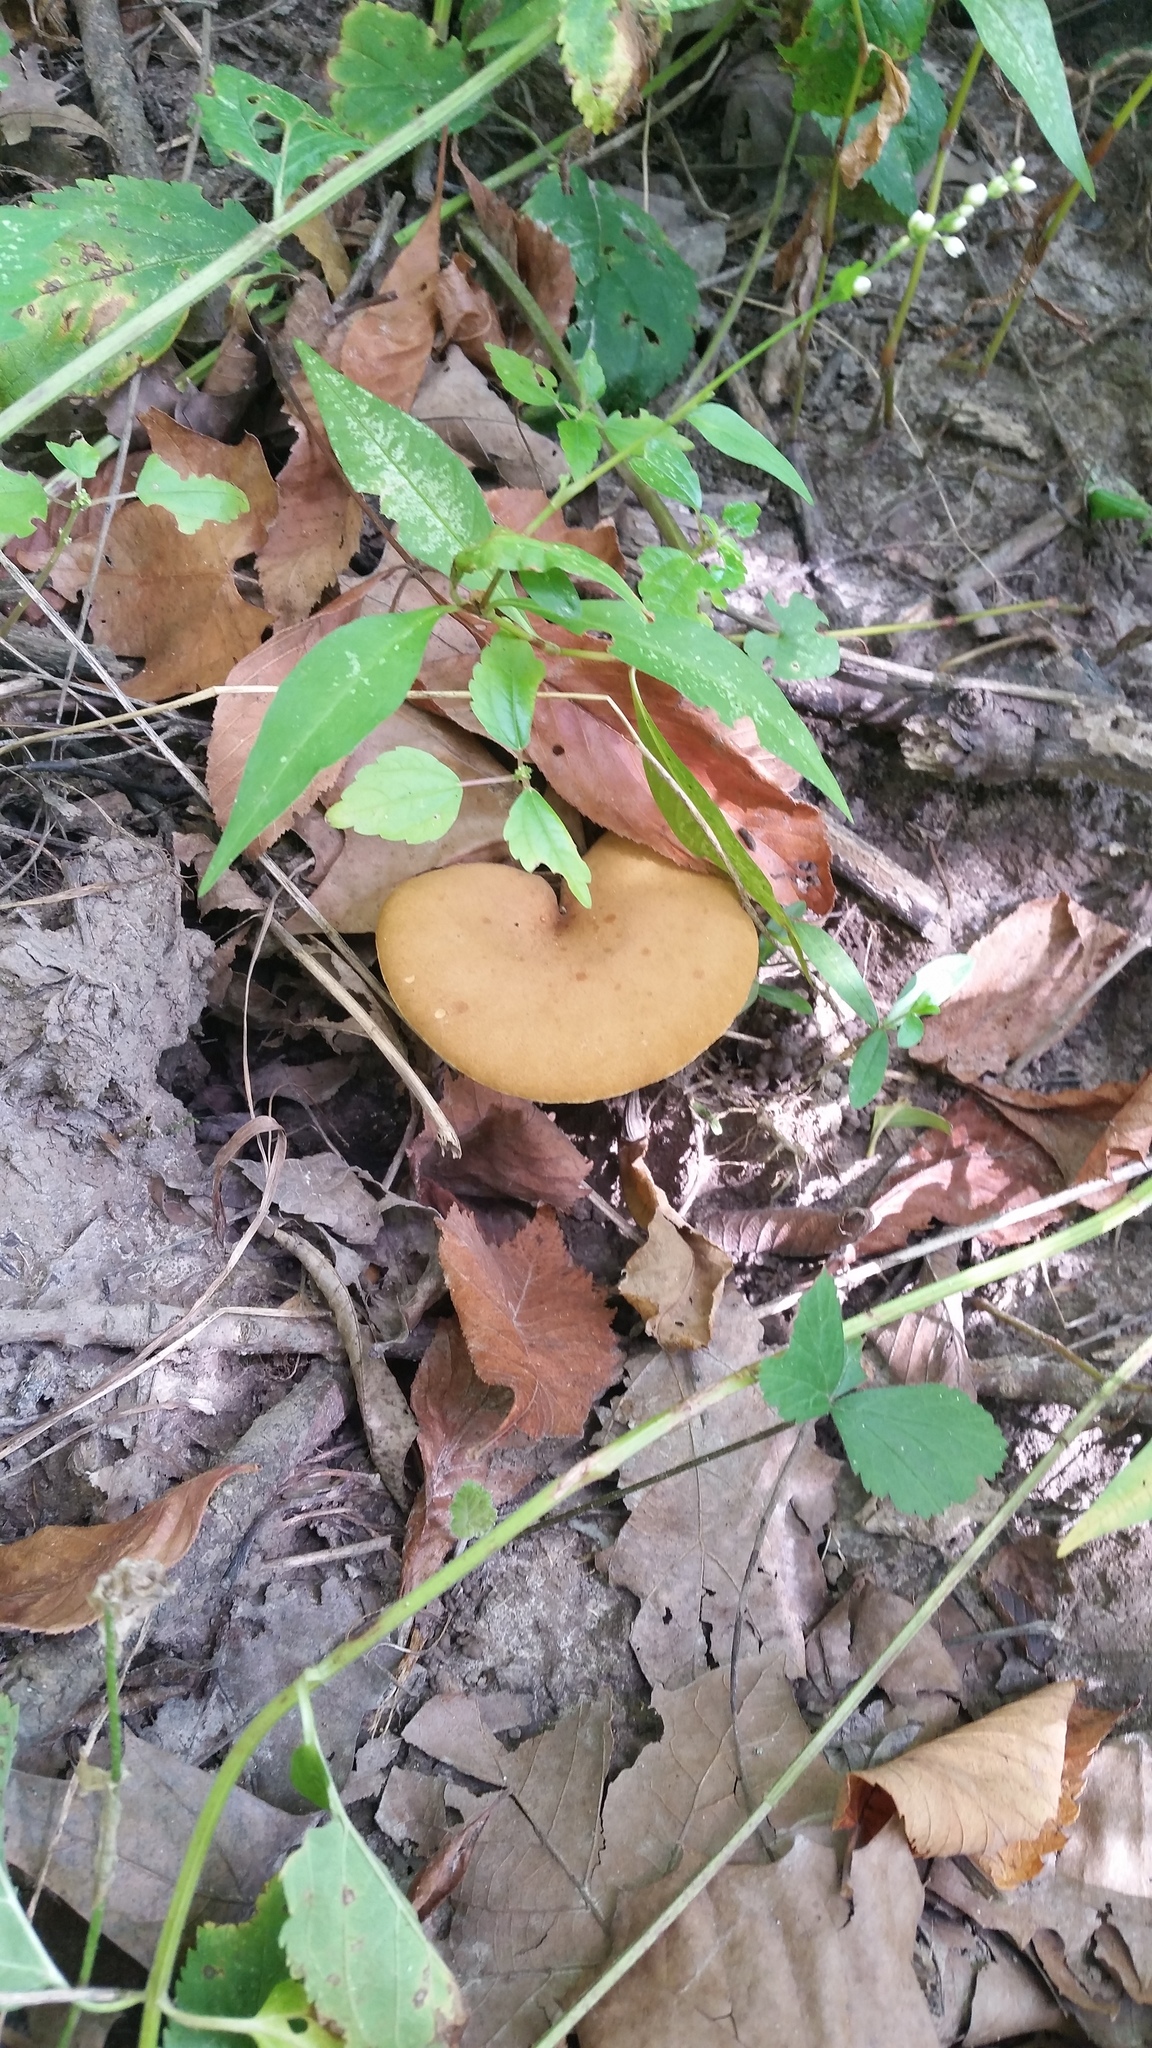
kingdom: Fungi
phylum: Basidiomycota
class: Agaricomycetes
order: Boletales
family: Boletinellaceae
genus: Boletinellus
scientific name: Boletinellus merulioides
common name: Ash tree bolete
